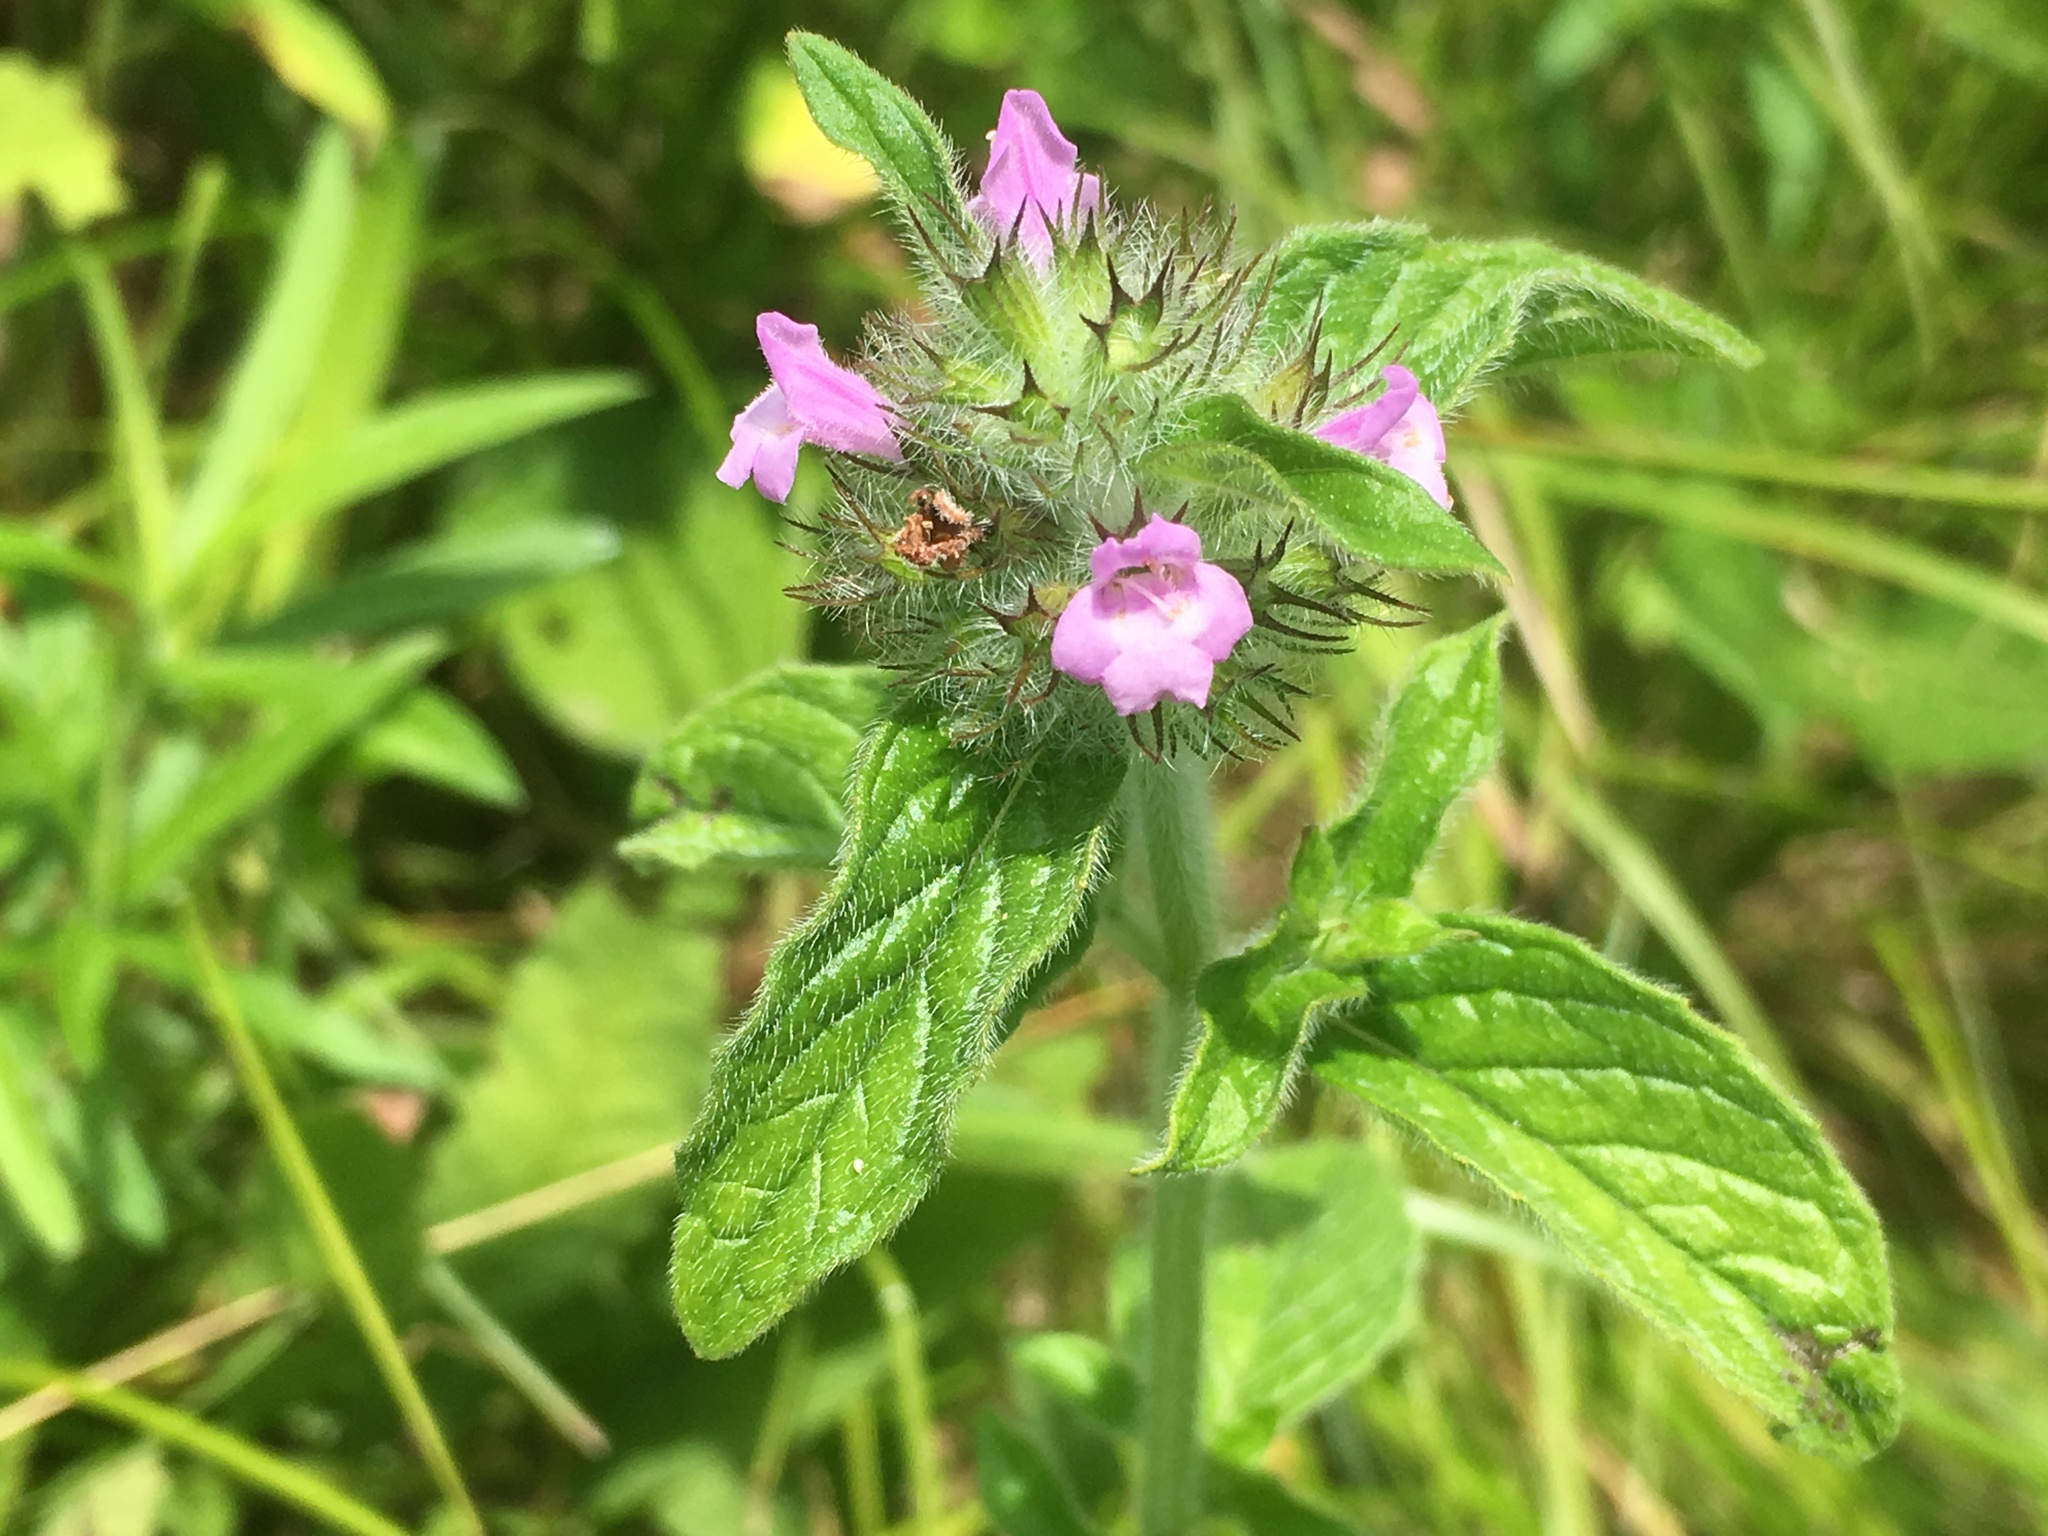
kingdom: Plantae
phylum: Tracheophyta
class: Magnoliopsida
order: Lamiales
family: Lamiaceae
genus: Clinopodium
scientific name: Clinopodium vulgare
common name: Wild basil
